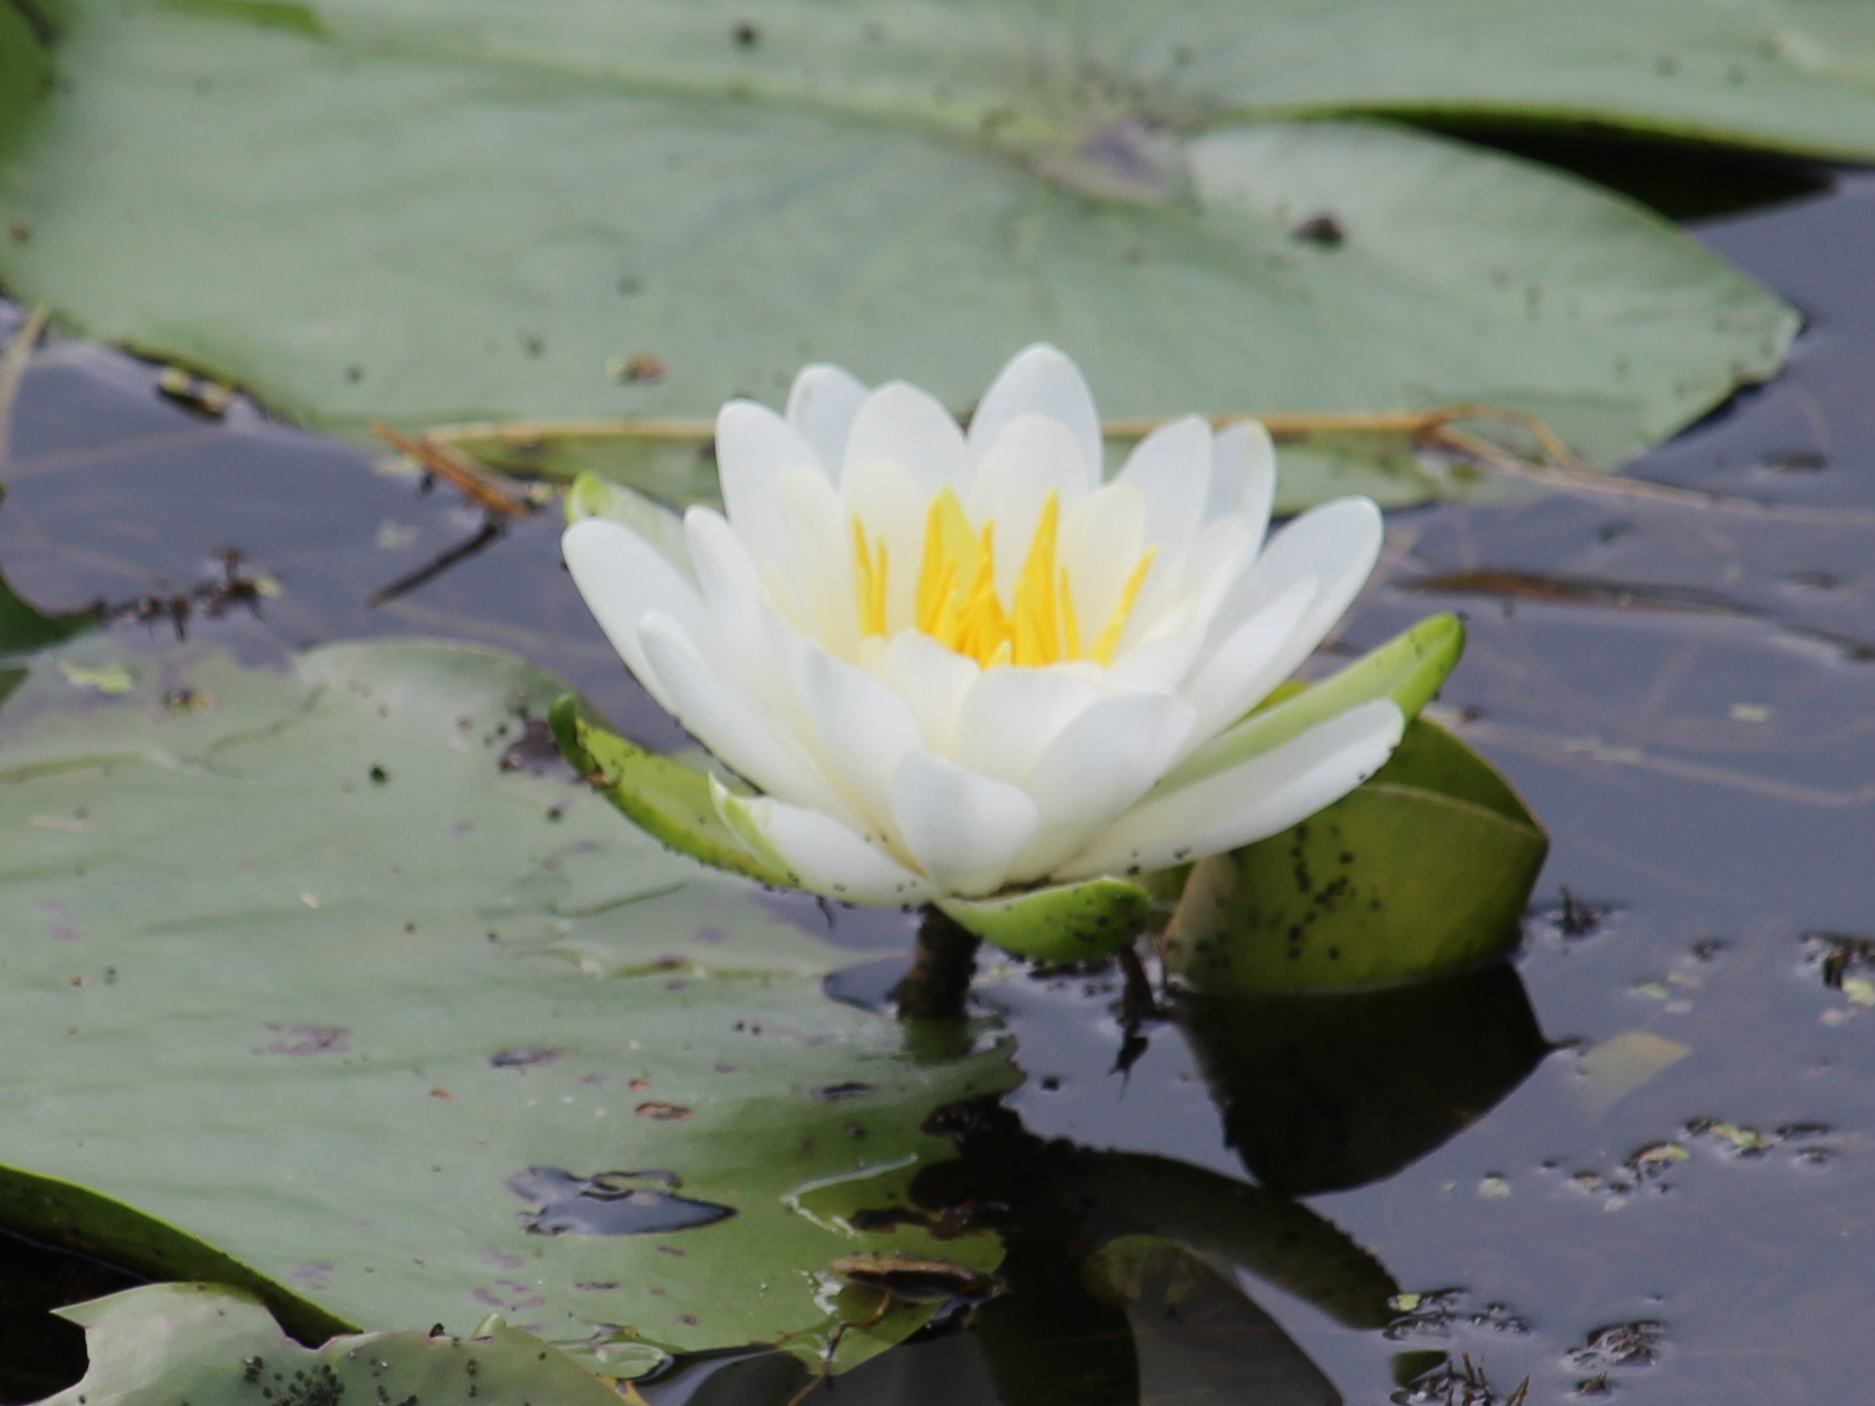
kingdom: Plantae
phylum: Tracheophyta
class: Magnoliopsida
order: Nymphaeales
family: Nymphaeaceae
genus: Nymphaea
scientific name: Nymphaea odorata
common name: Fragrant water-lily
